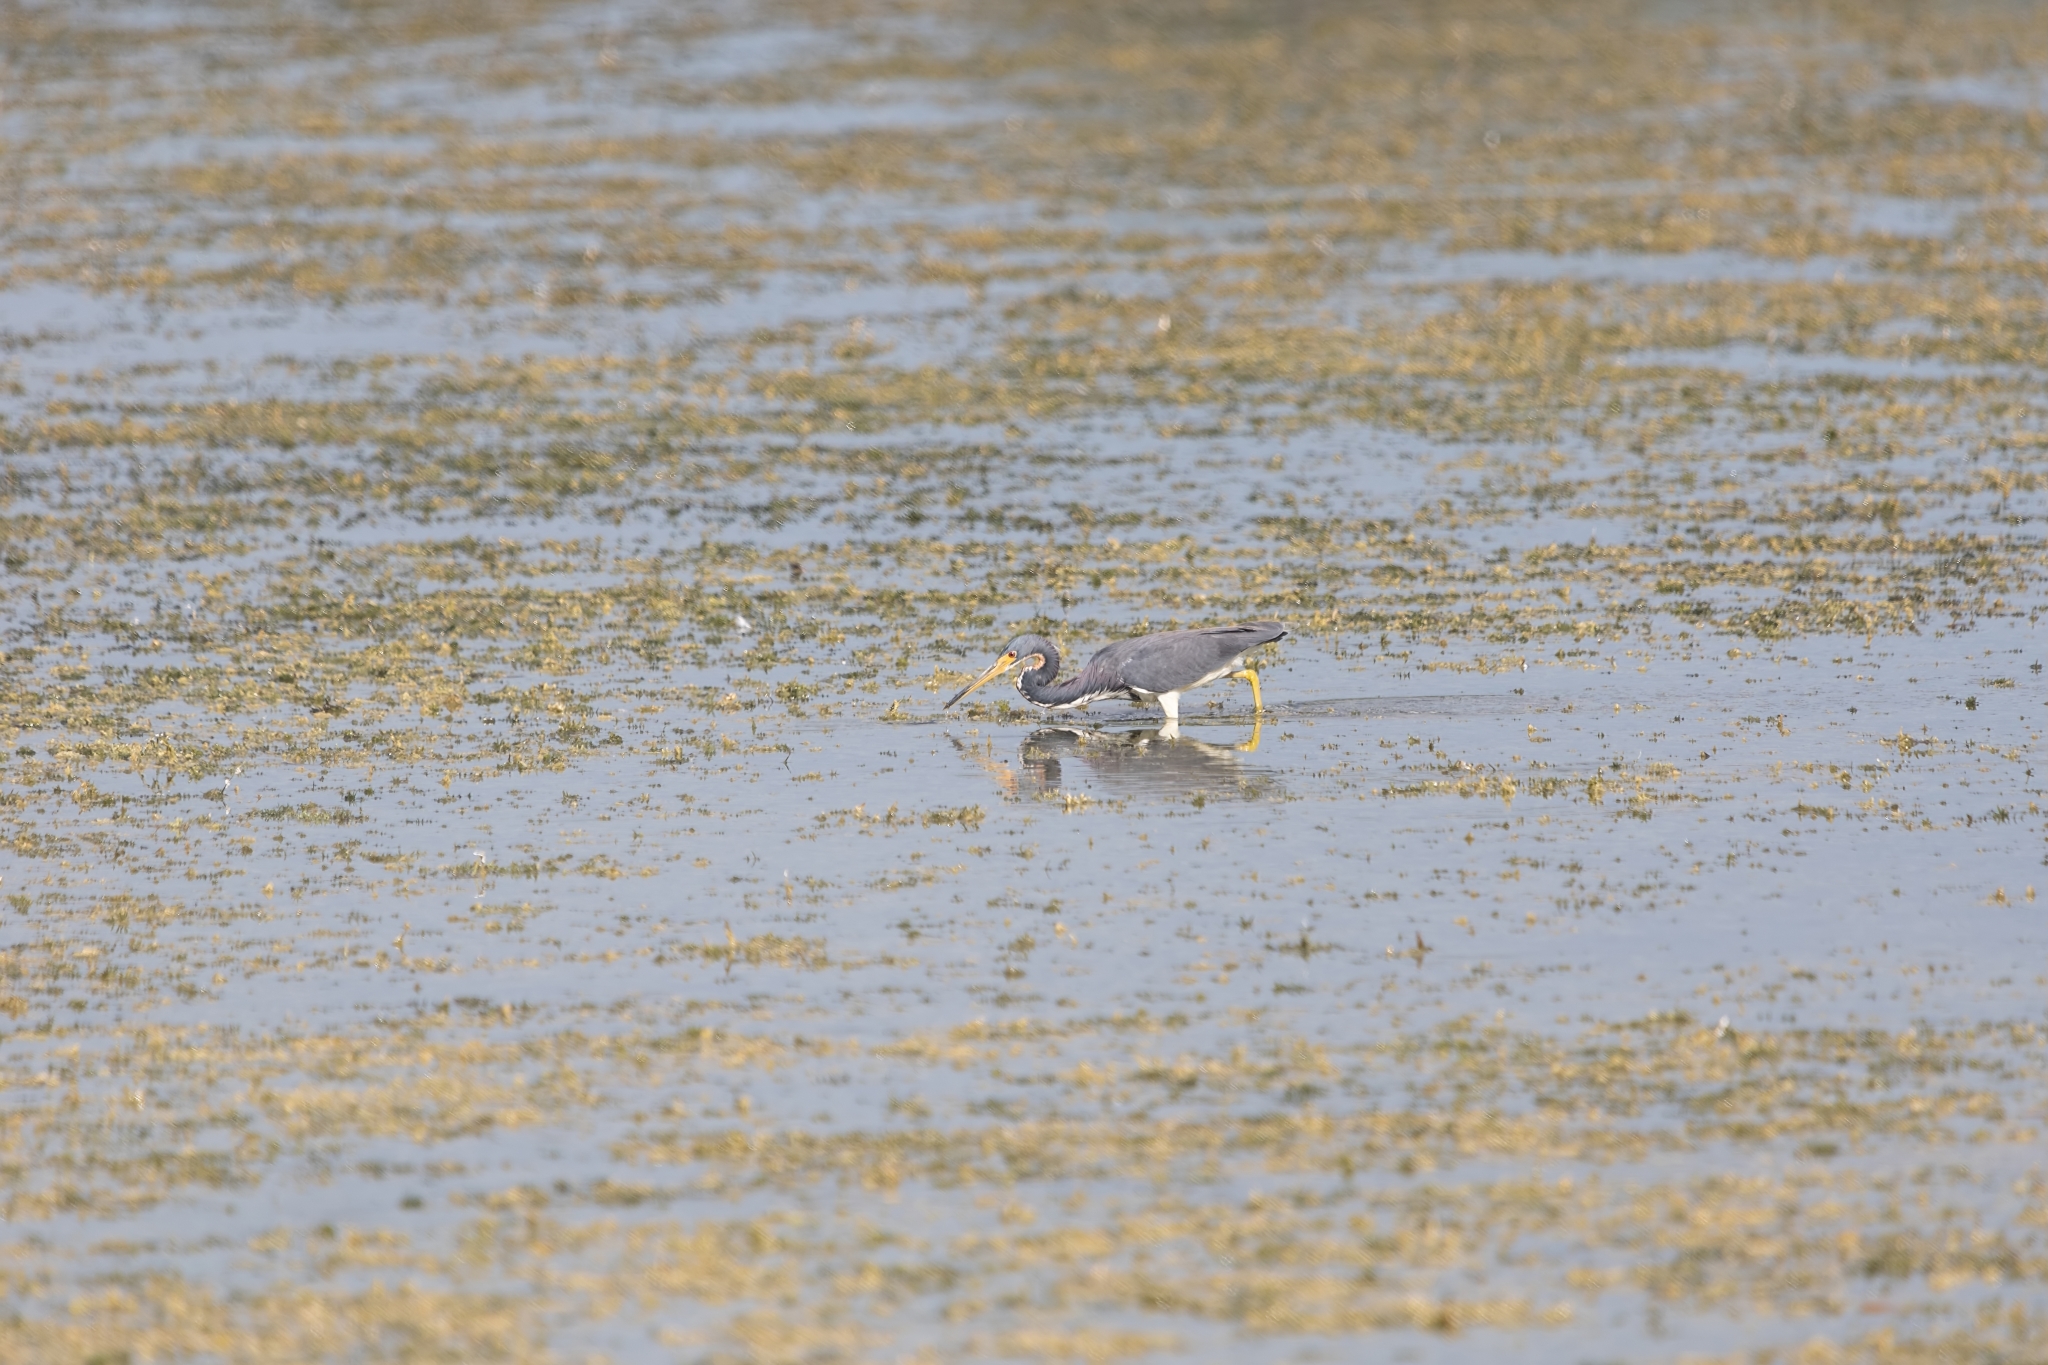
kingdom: Animalia
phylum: Chordata
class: Aves
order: Pelecaniformes
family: Ardeidae
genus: Egretta
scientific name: Egretta tricolor
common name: Tricolored heron
